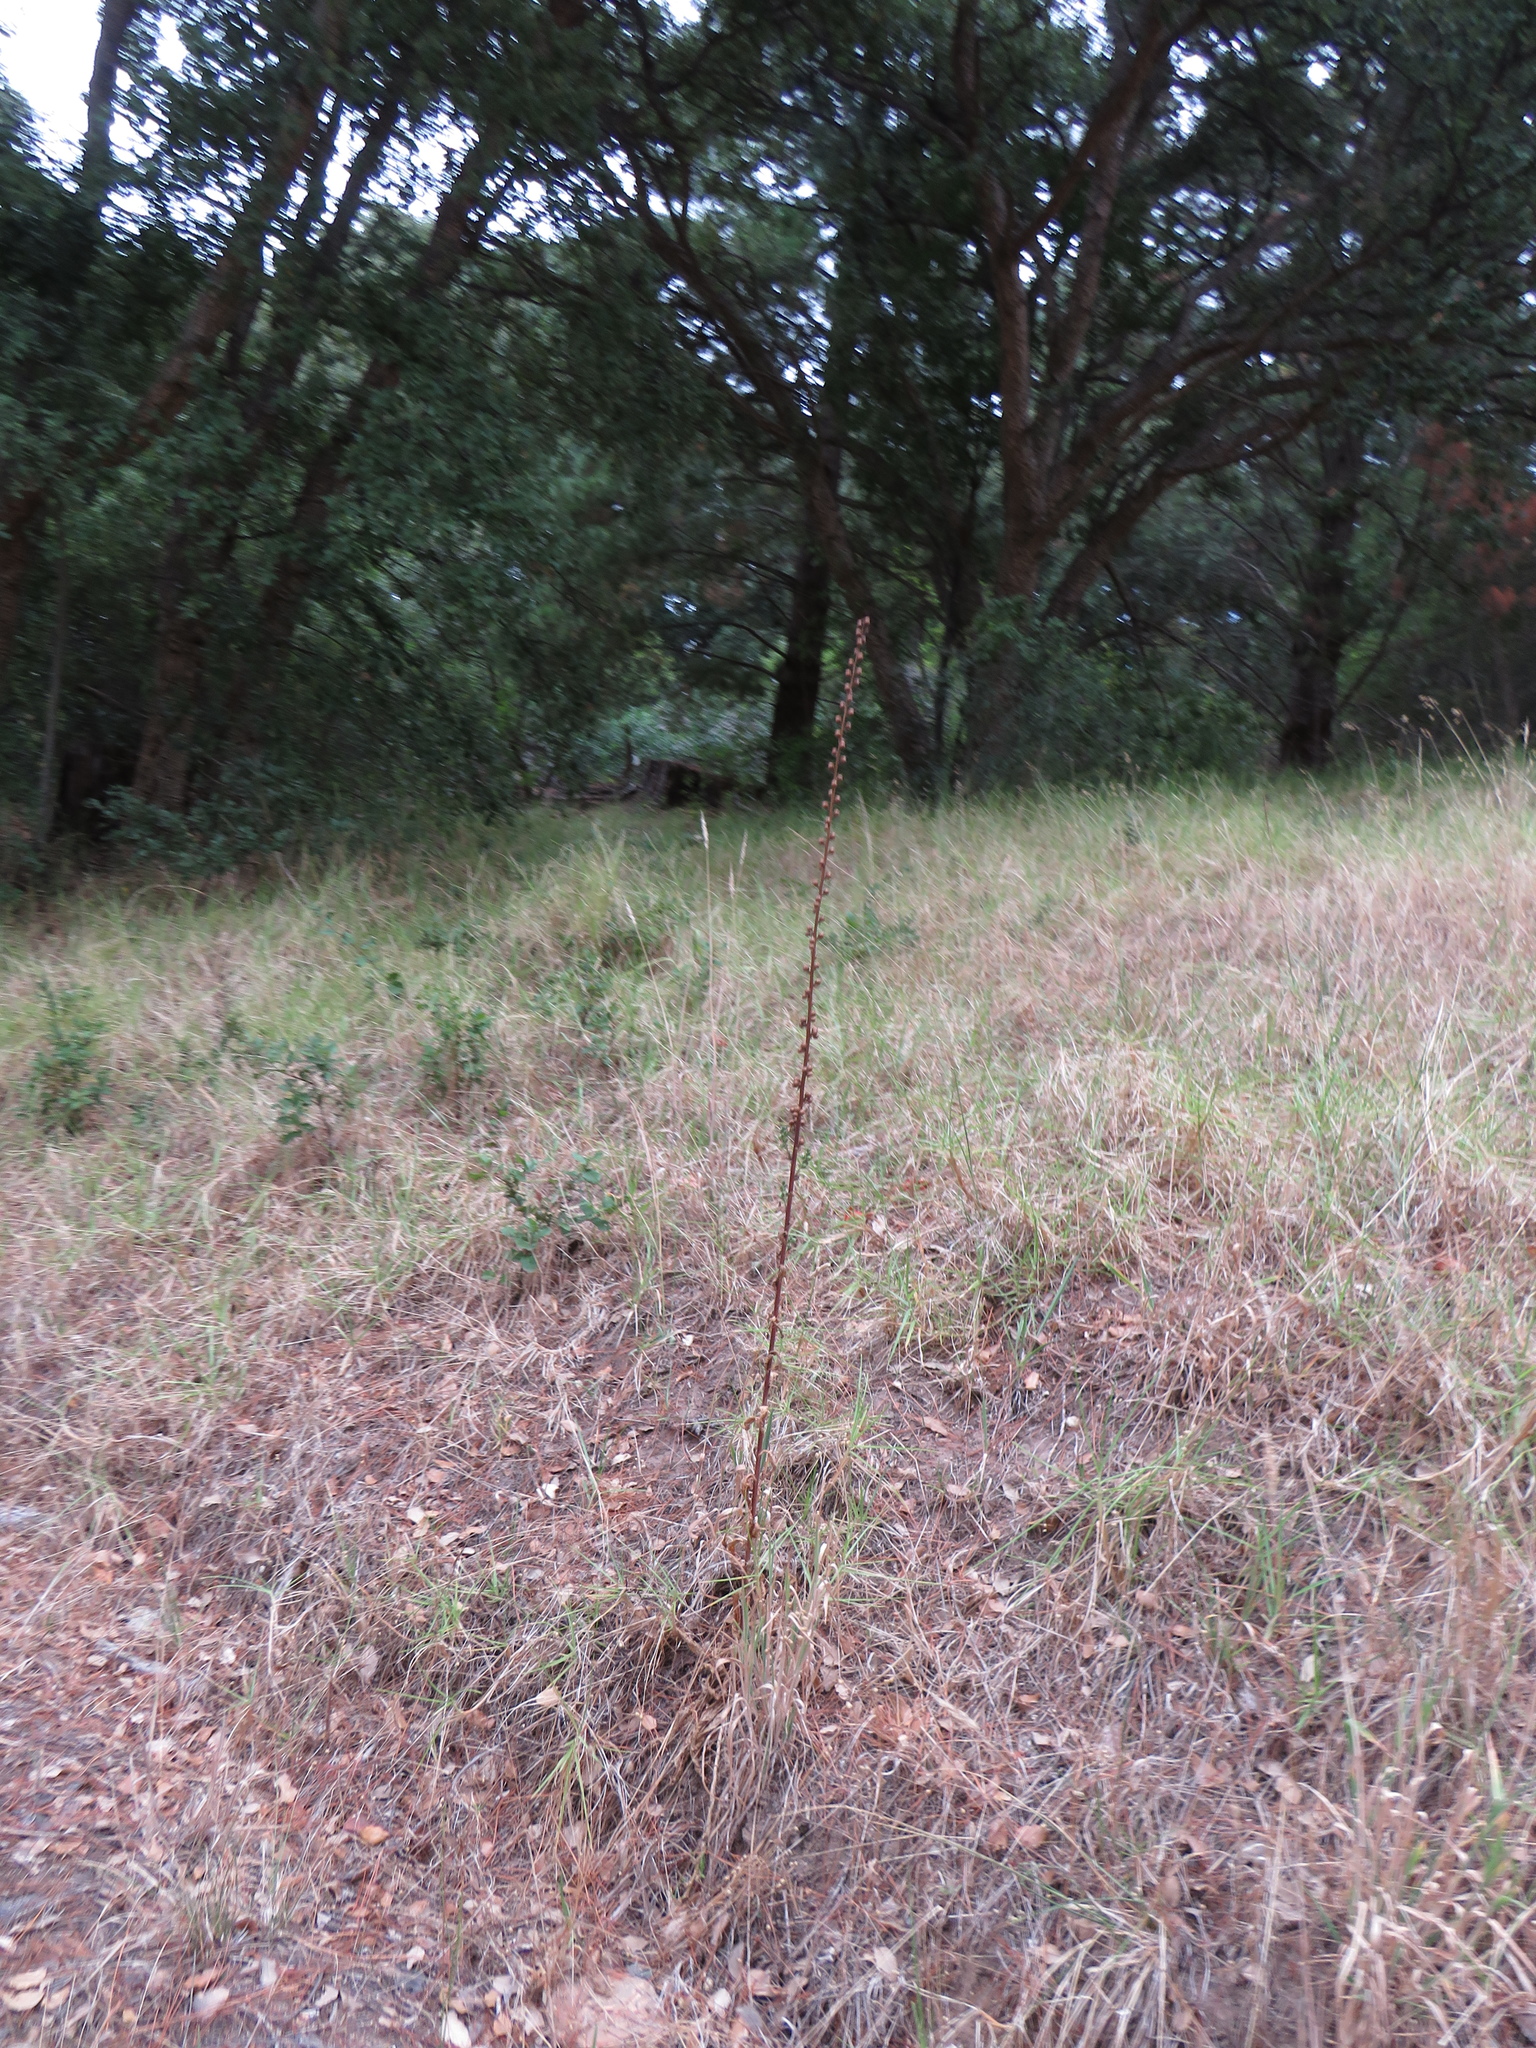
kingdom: Plantae
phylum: Tracheophyta
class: Magnoliopsida
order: Lamiales
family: Scrophulariaceae
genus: Verbascum
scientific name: Verbascum virgatum
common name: Twiggy mullein
